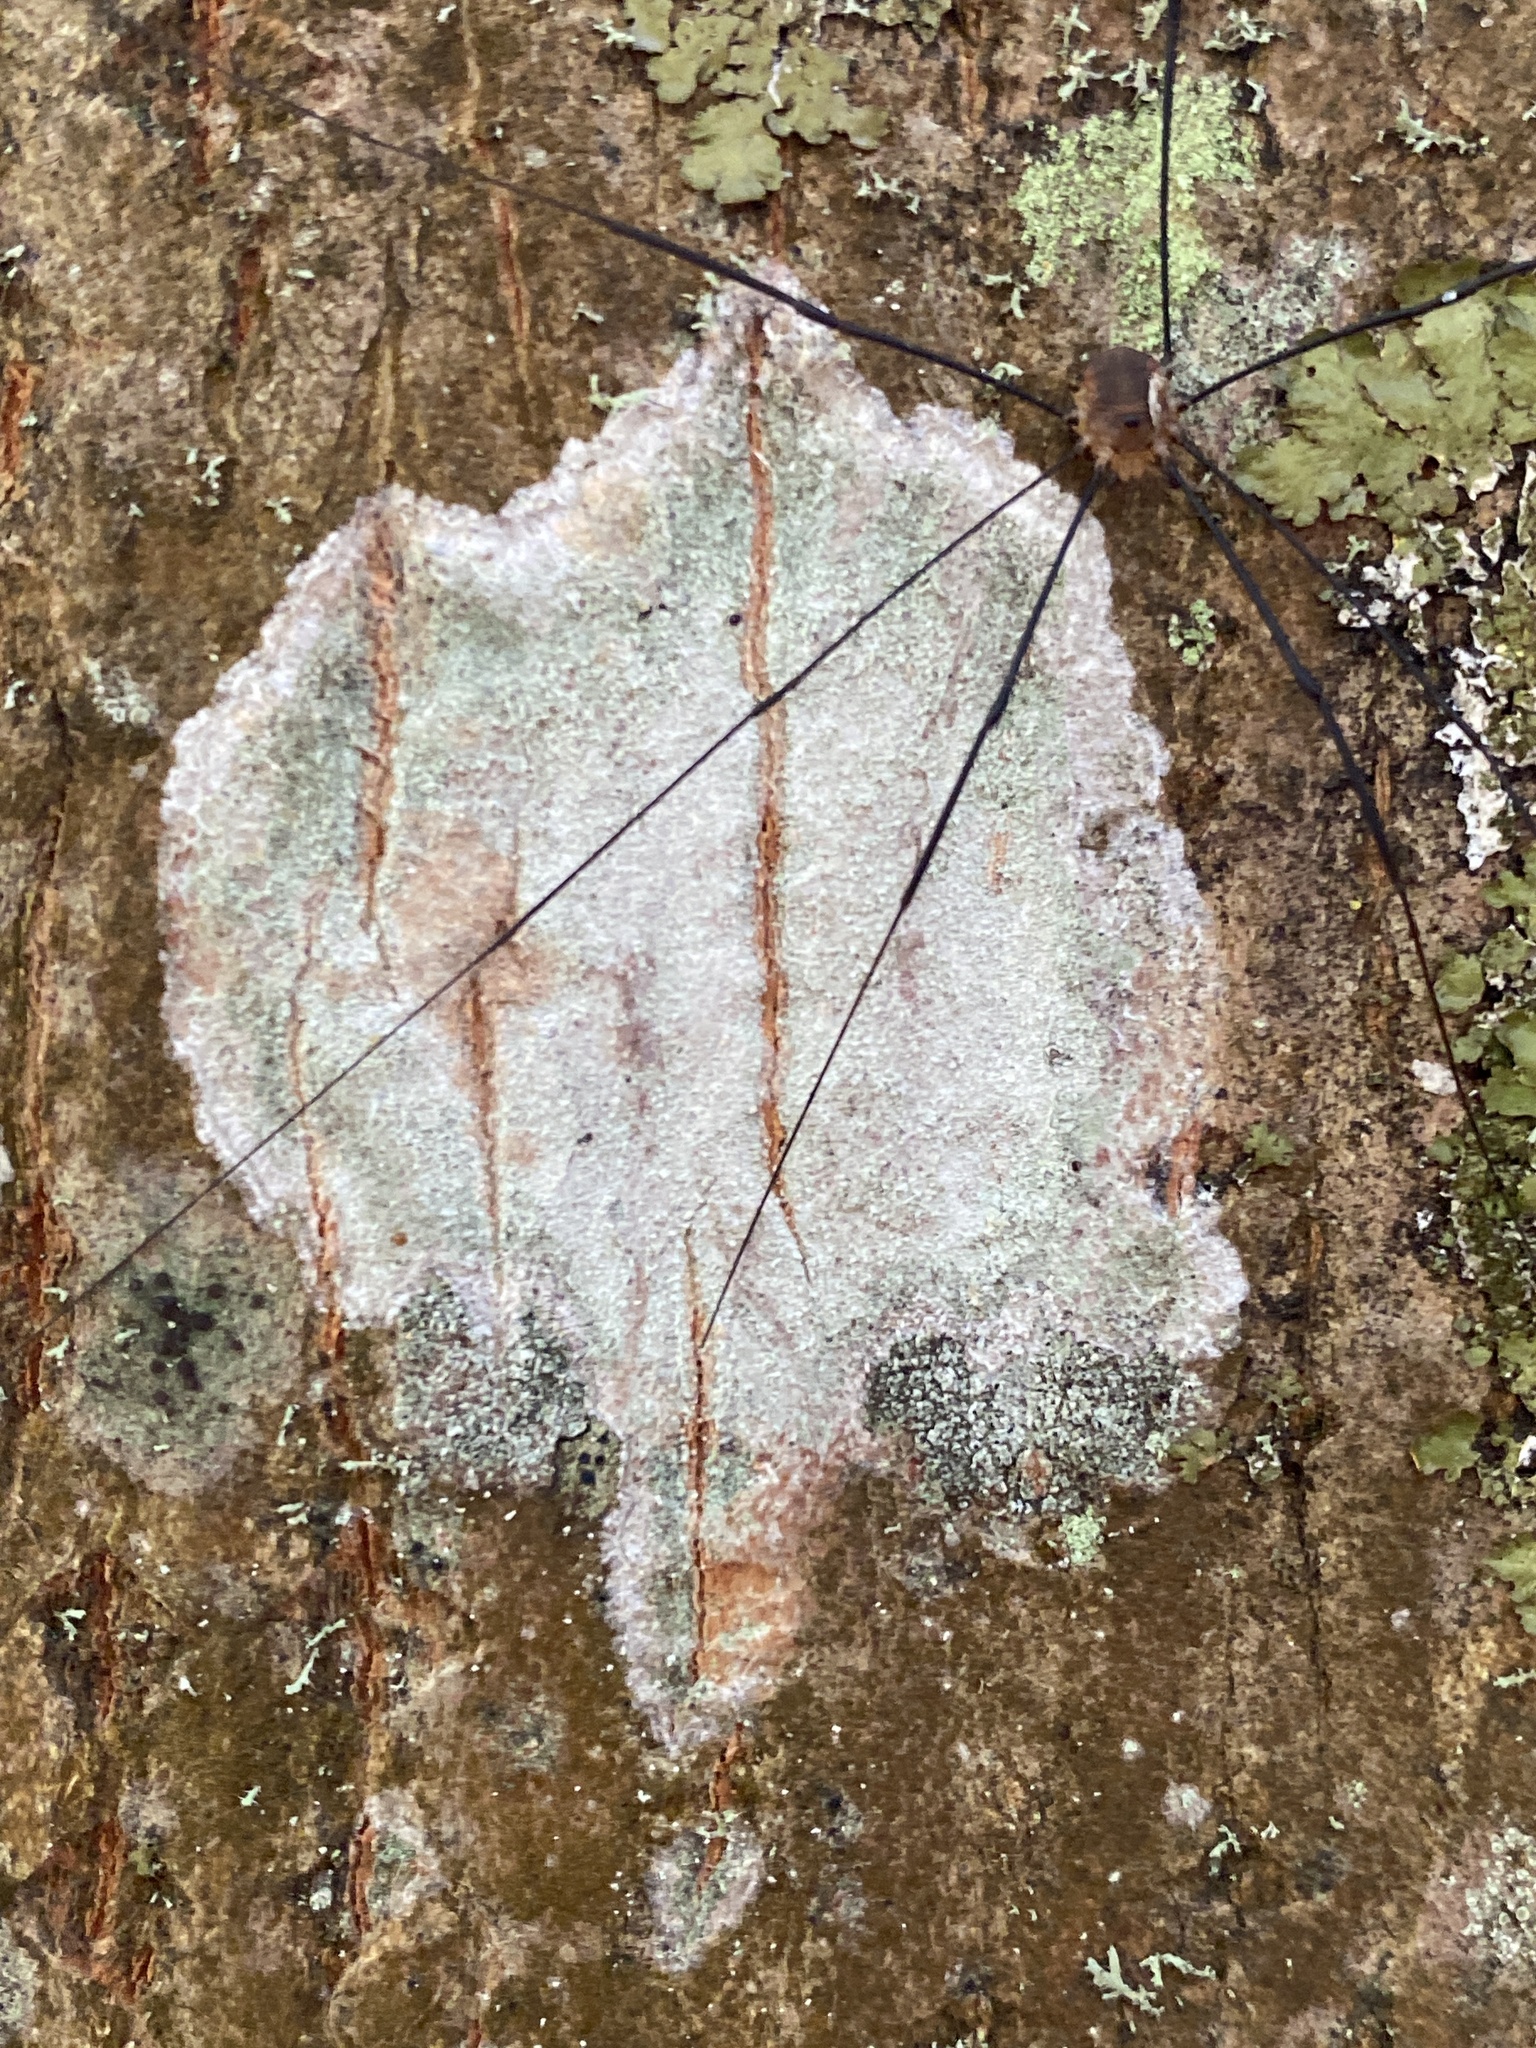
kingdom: Fungi
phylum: Ascomycota
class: Lecanoromycetes
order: Ostropales
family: Phlyctidaceae
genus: Phlyctis
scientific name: Phlyctis argena
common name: Whitewash lichen
